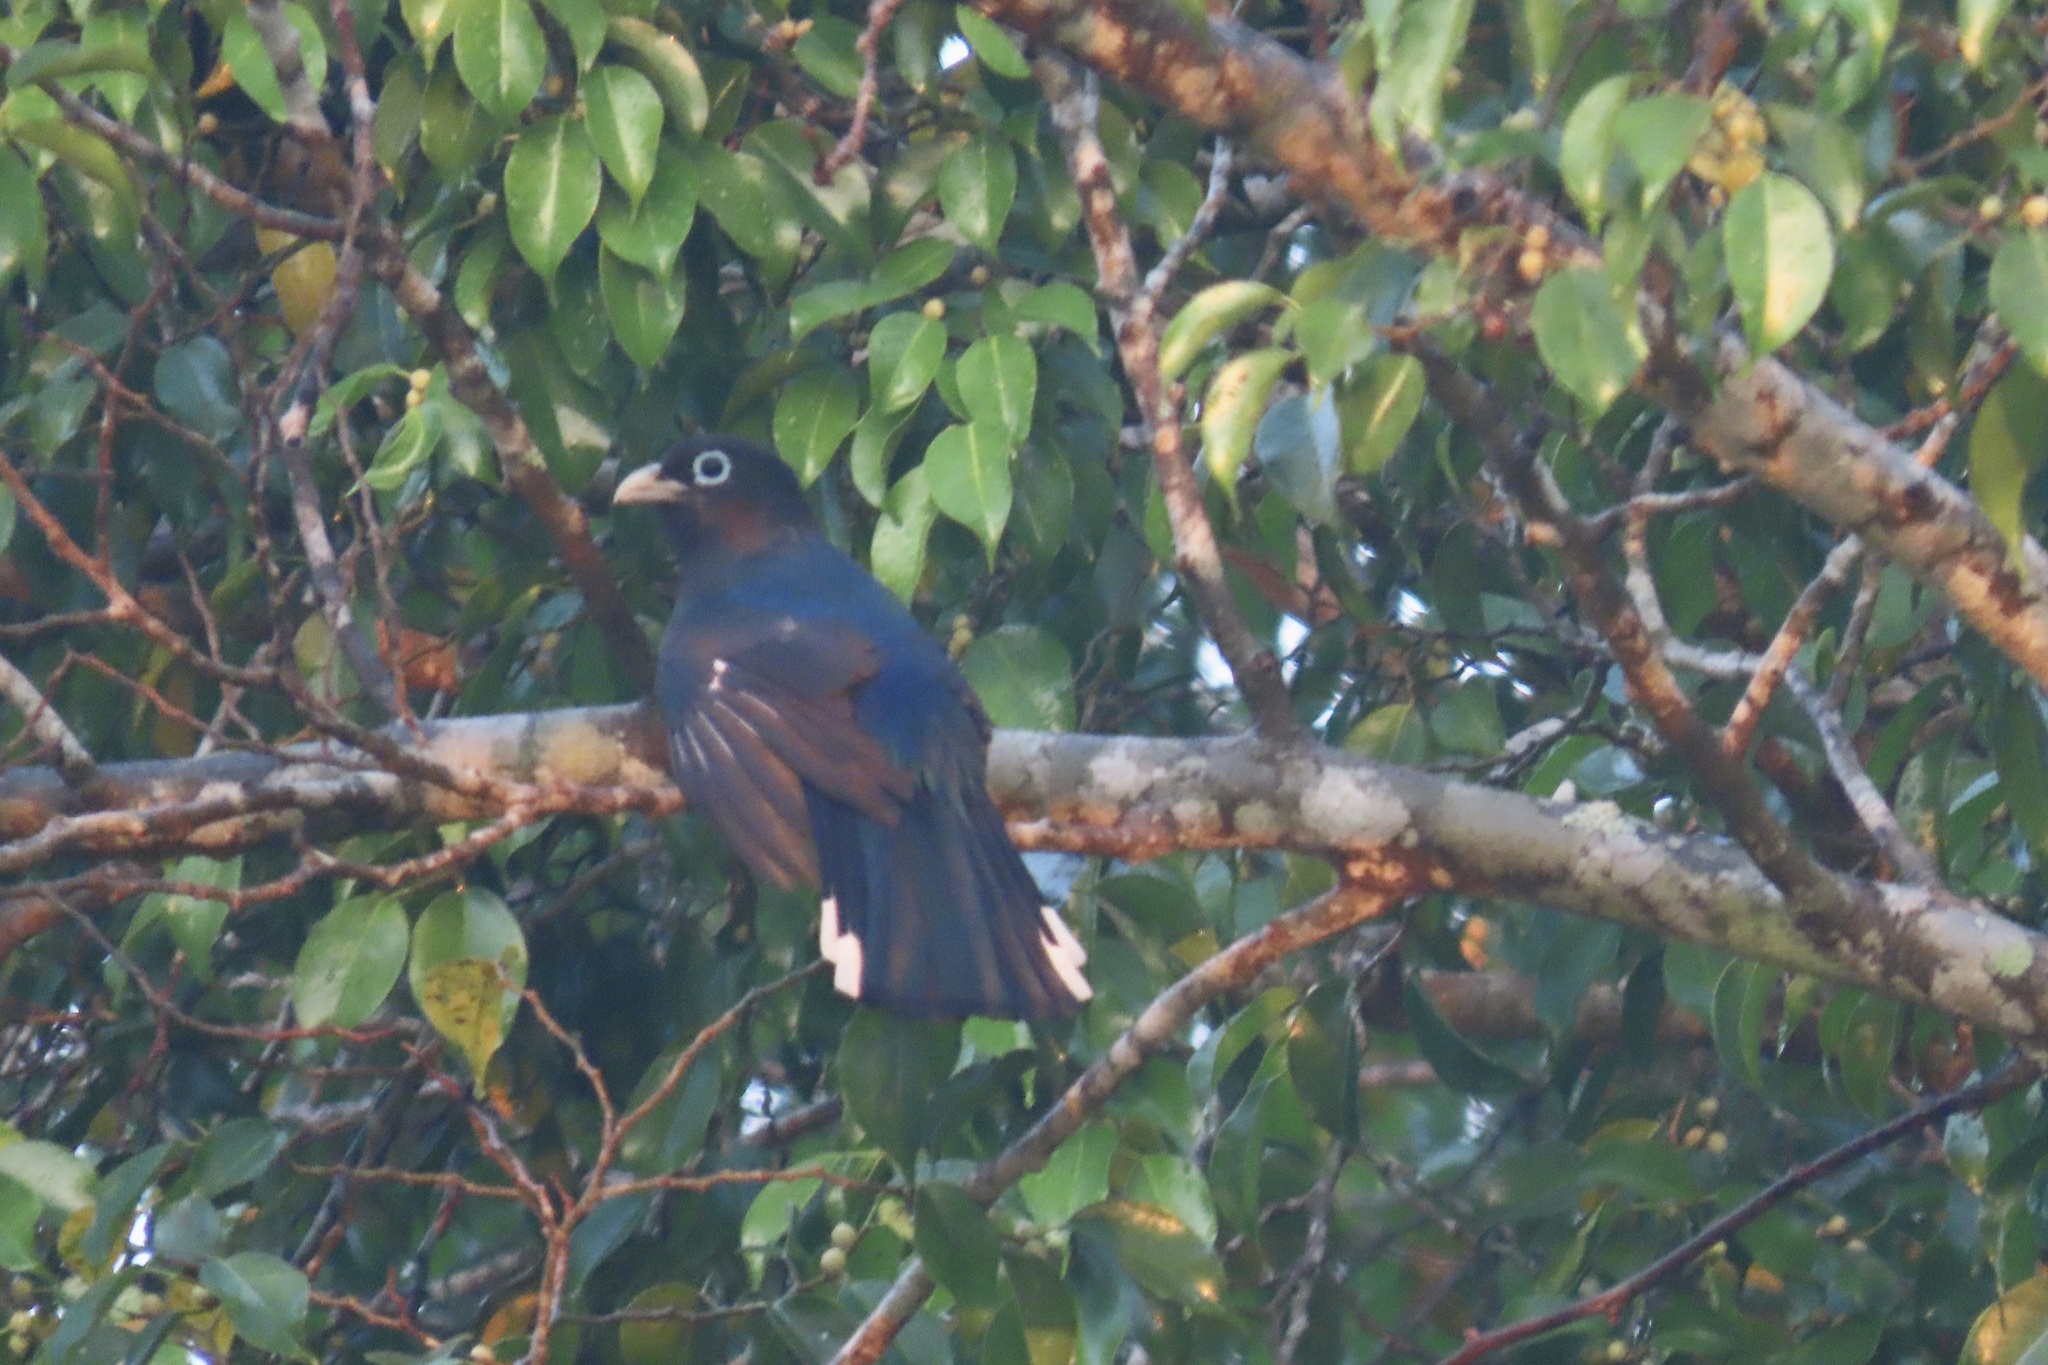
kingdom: Animalia
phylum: Chordata
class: Aves
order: Trogoniformes
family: Trogonidae
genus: Trogon
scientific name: Trogon melanocephalus
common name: Black-headed trogon
